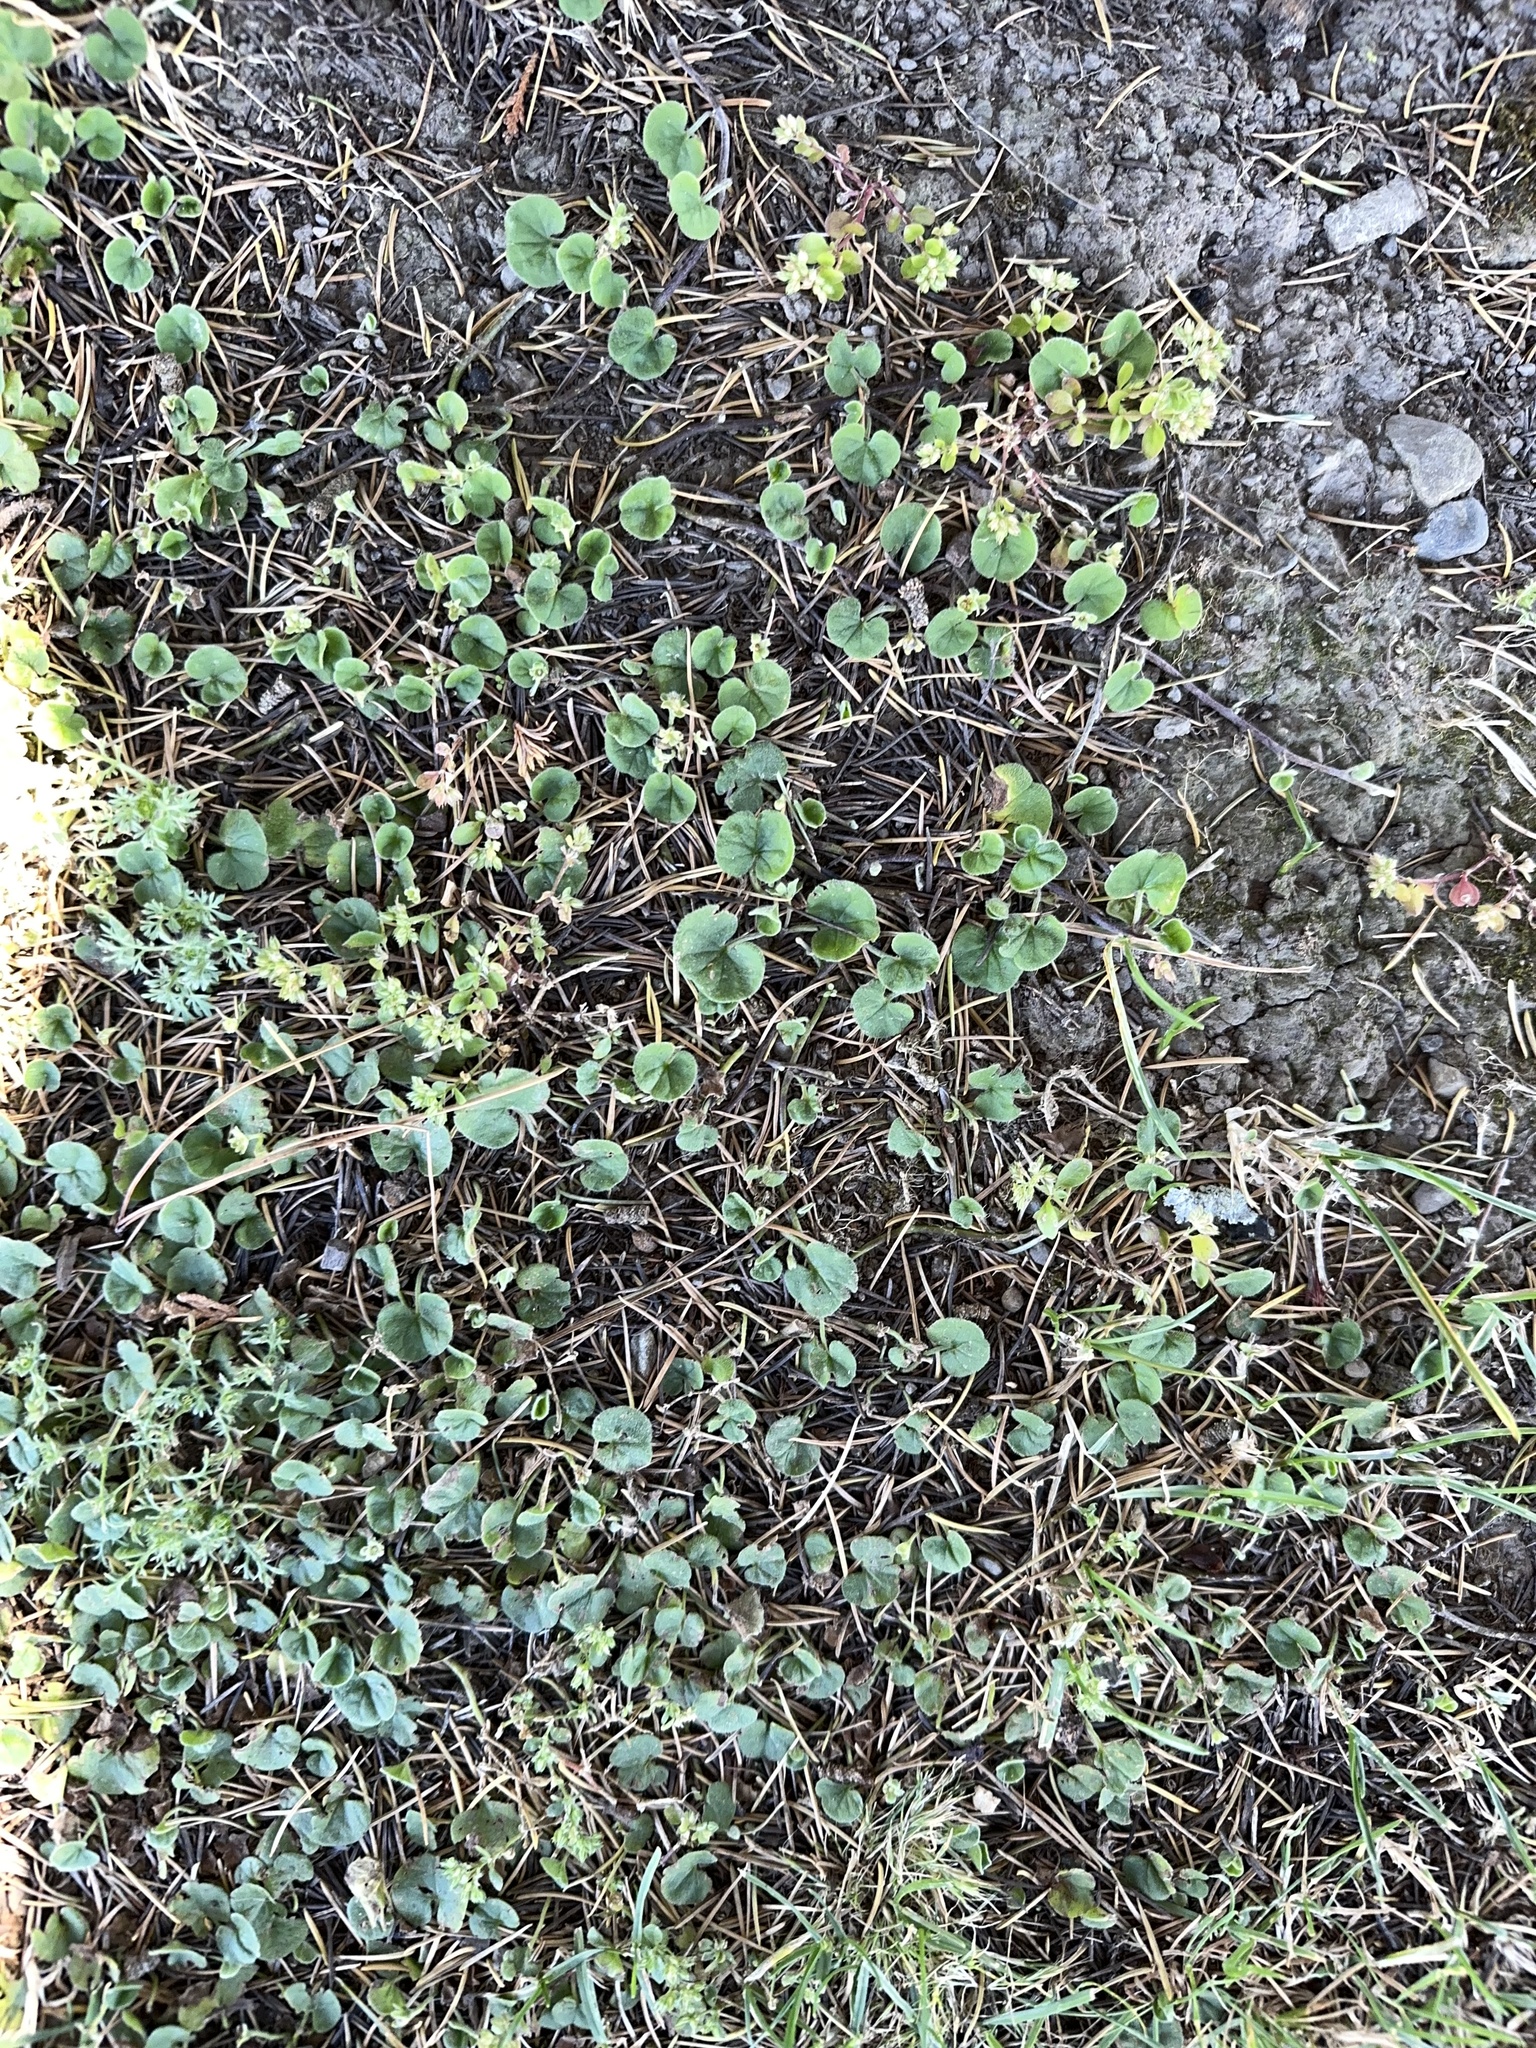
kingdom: Plantae
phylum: Tracheophyta
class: Magnoliopsida
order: Solanales
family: Convolvulaceae
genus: Dichondra
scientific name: Dichondra repens
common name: Kidneyweed
